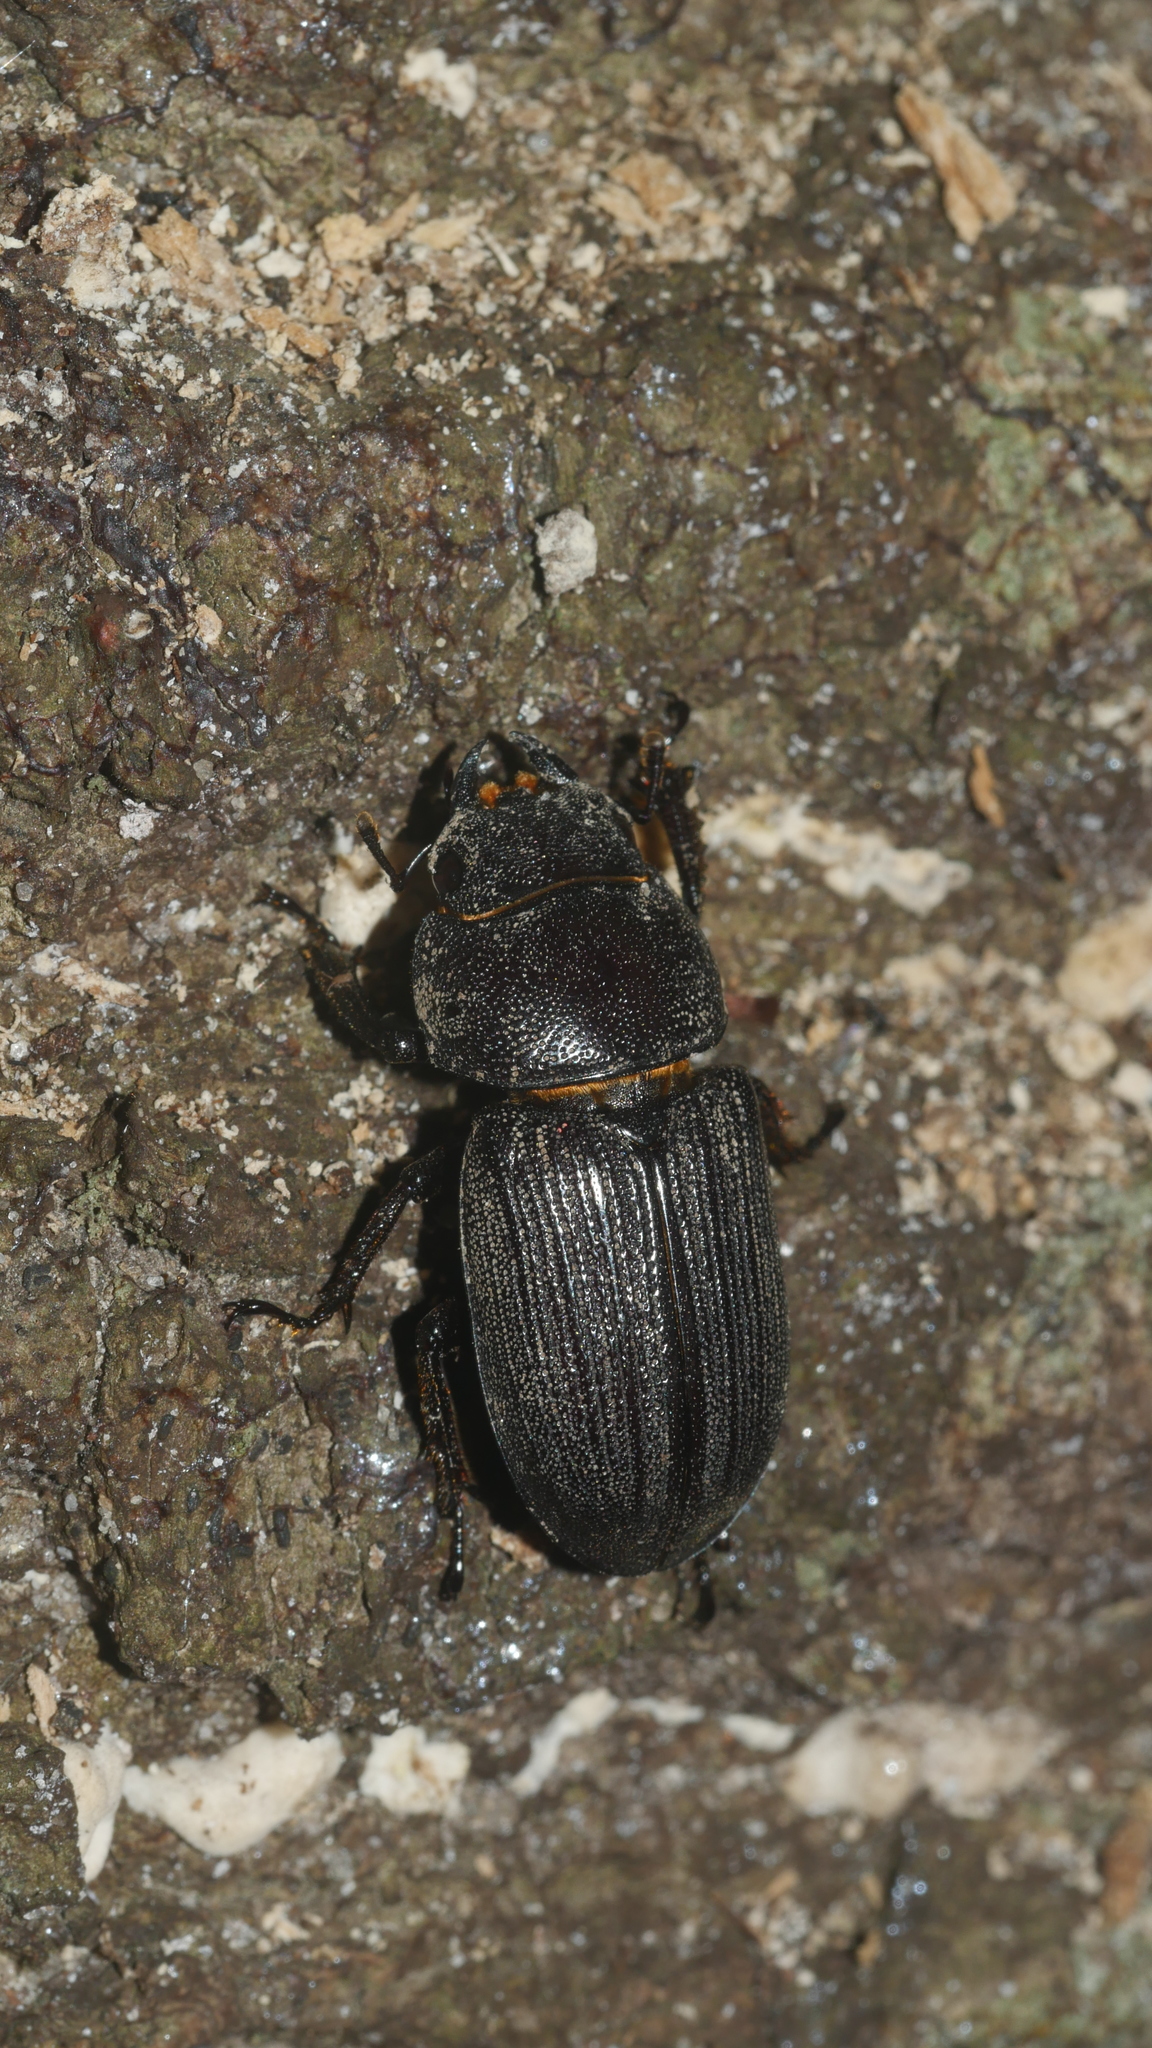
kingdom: Animalia
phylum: Arthropoda
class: Insecta
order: Coleoptera
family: Lucanidae
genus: Dorcus
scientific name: Dorcus parallelus
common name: Antelope beetle
